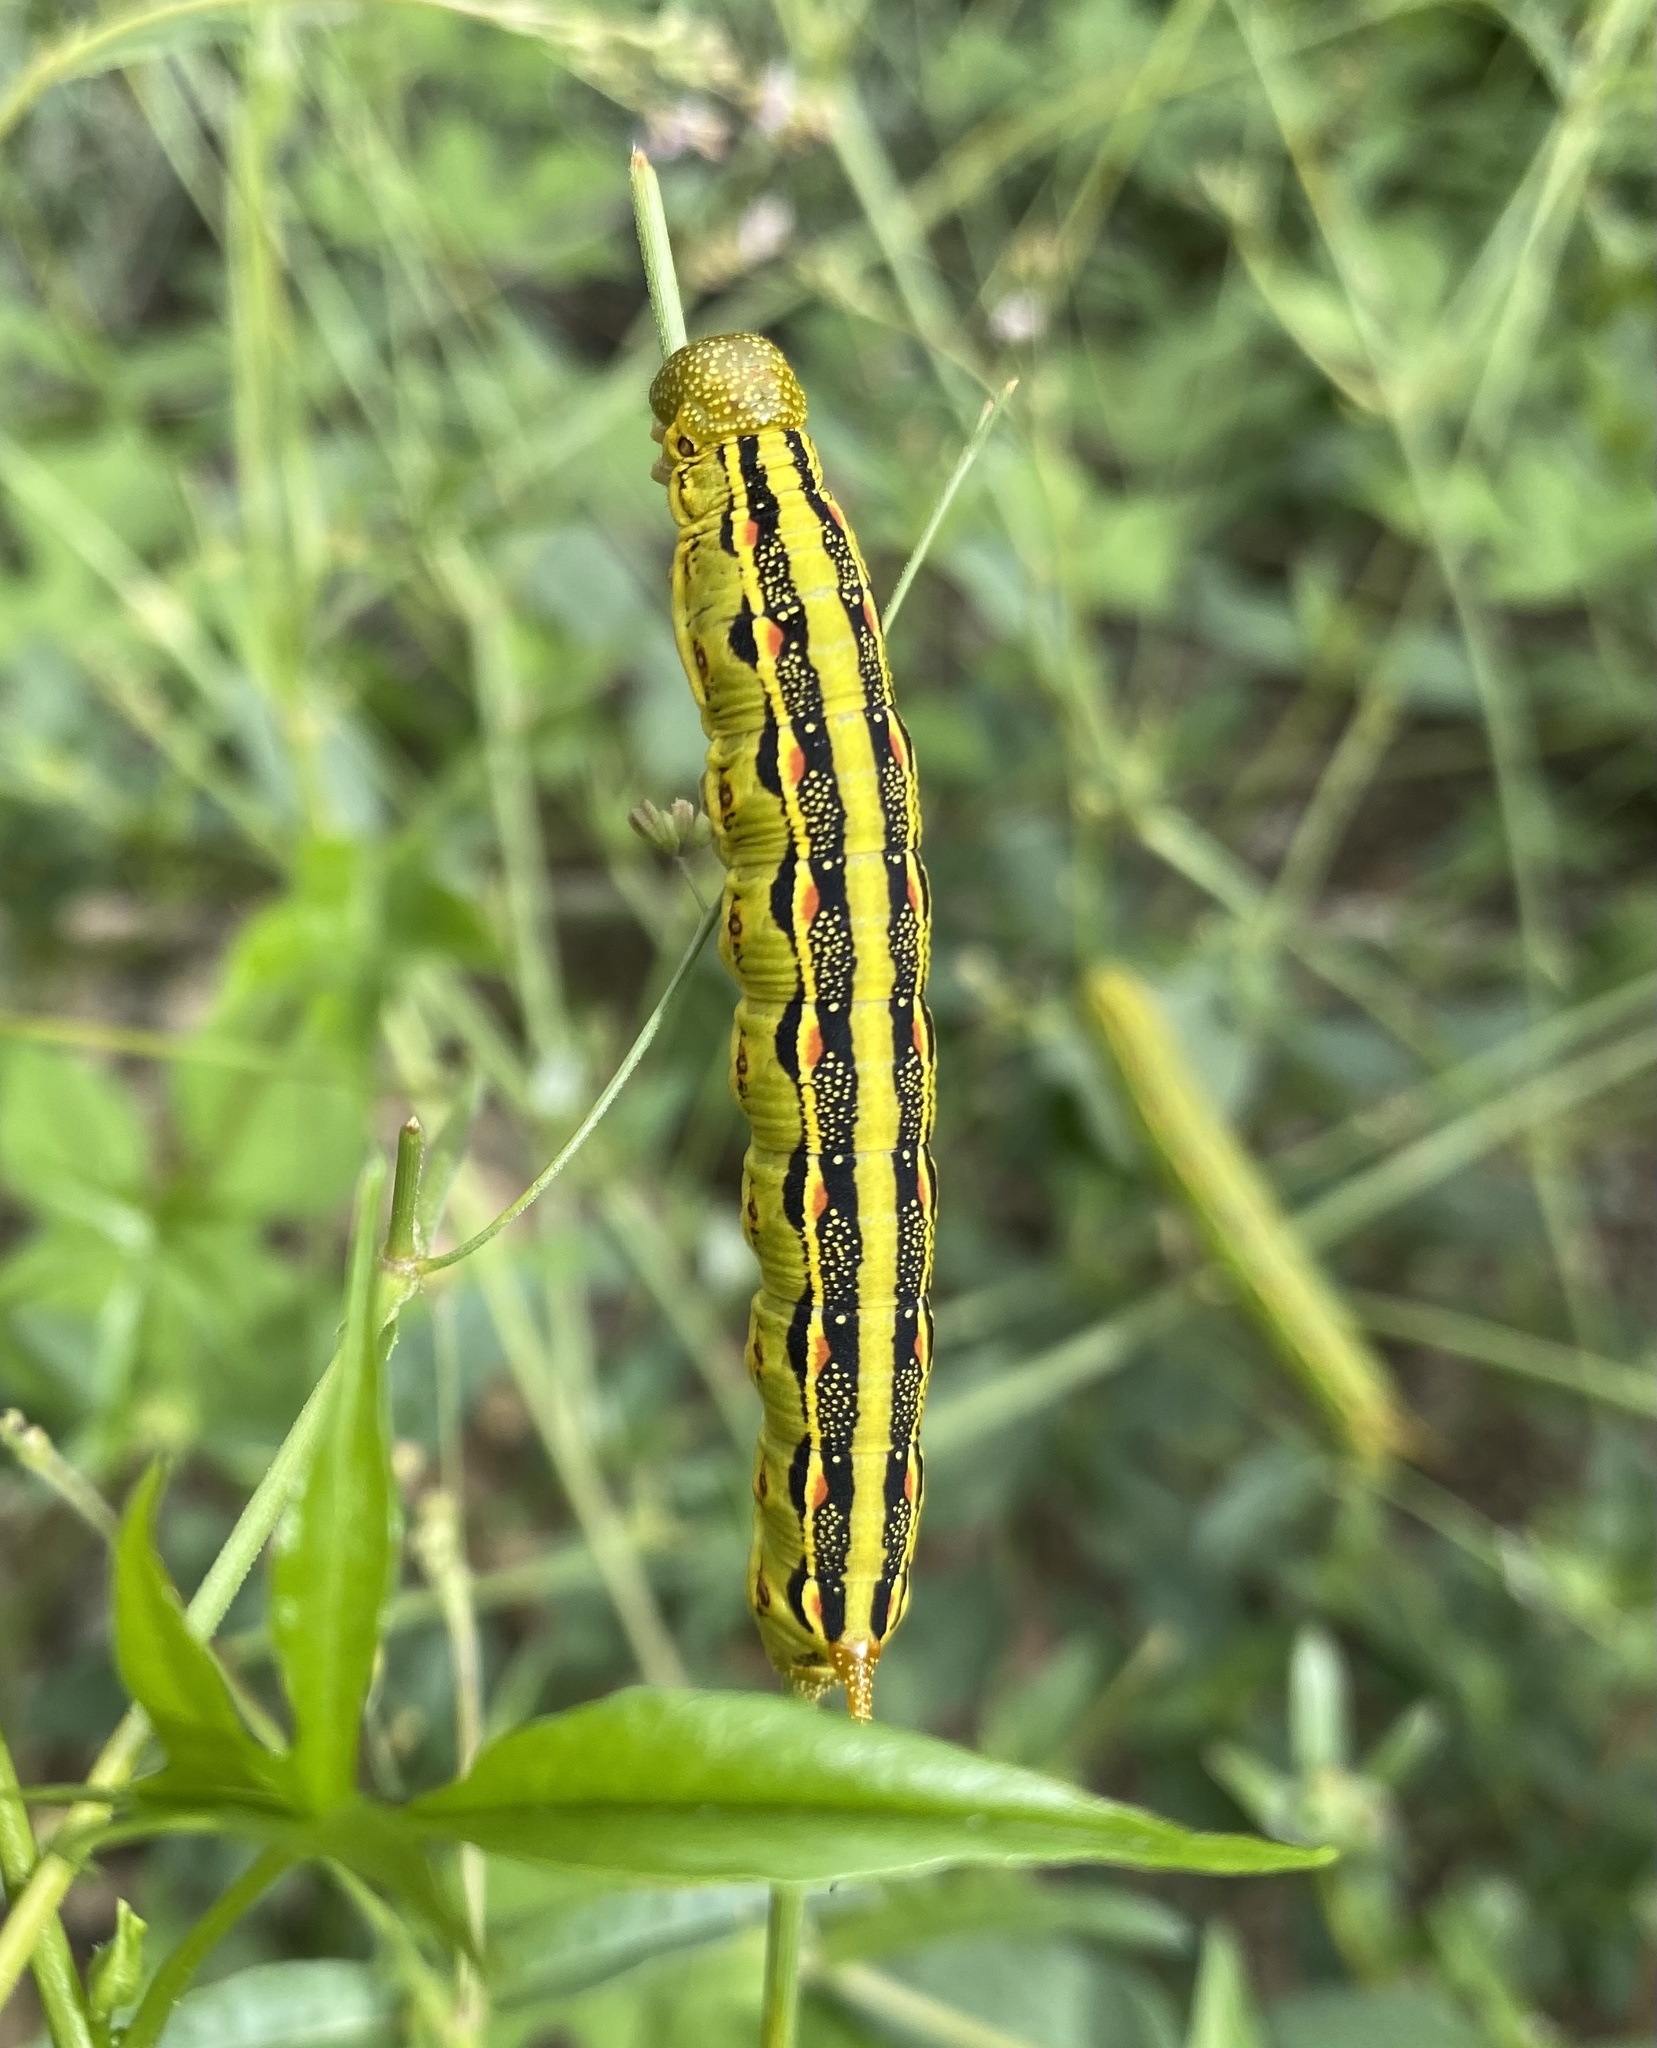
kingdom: Animalia
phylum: Arthropoda
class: Insecta
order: Lepidoptera
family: Sphingidae
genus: Hyles
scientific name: Hyles lineata
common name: White-lined sphinx
